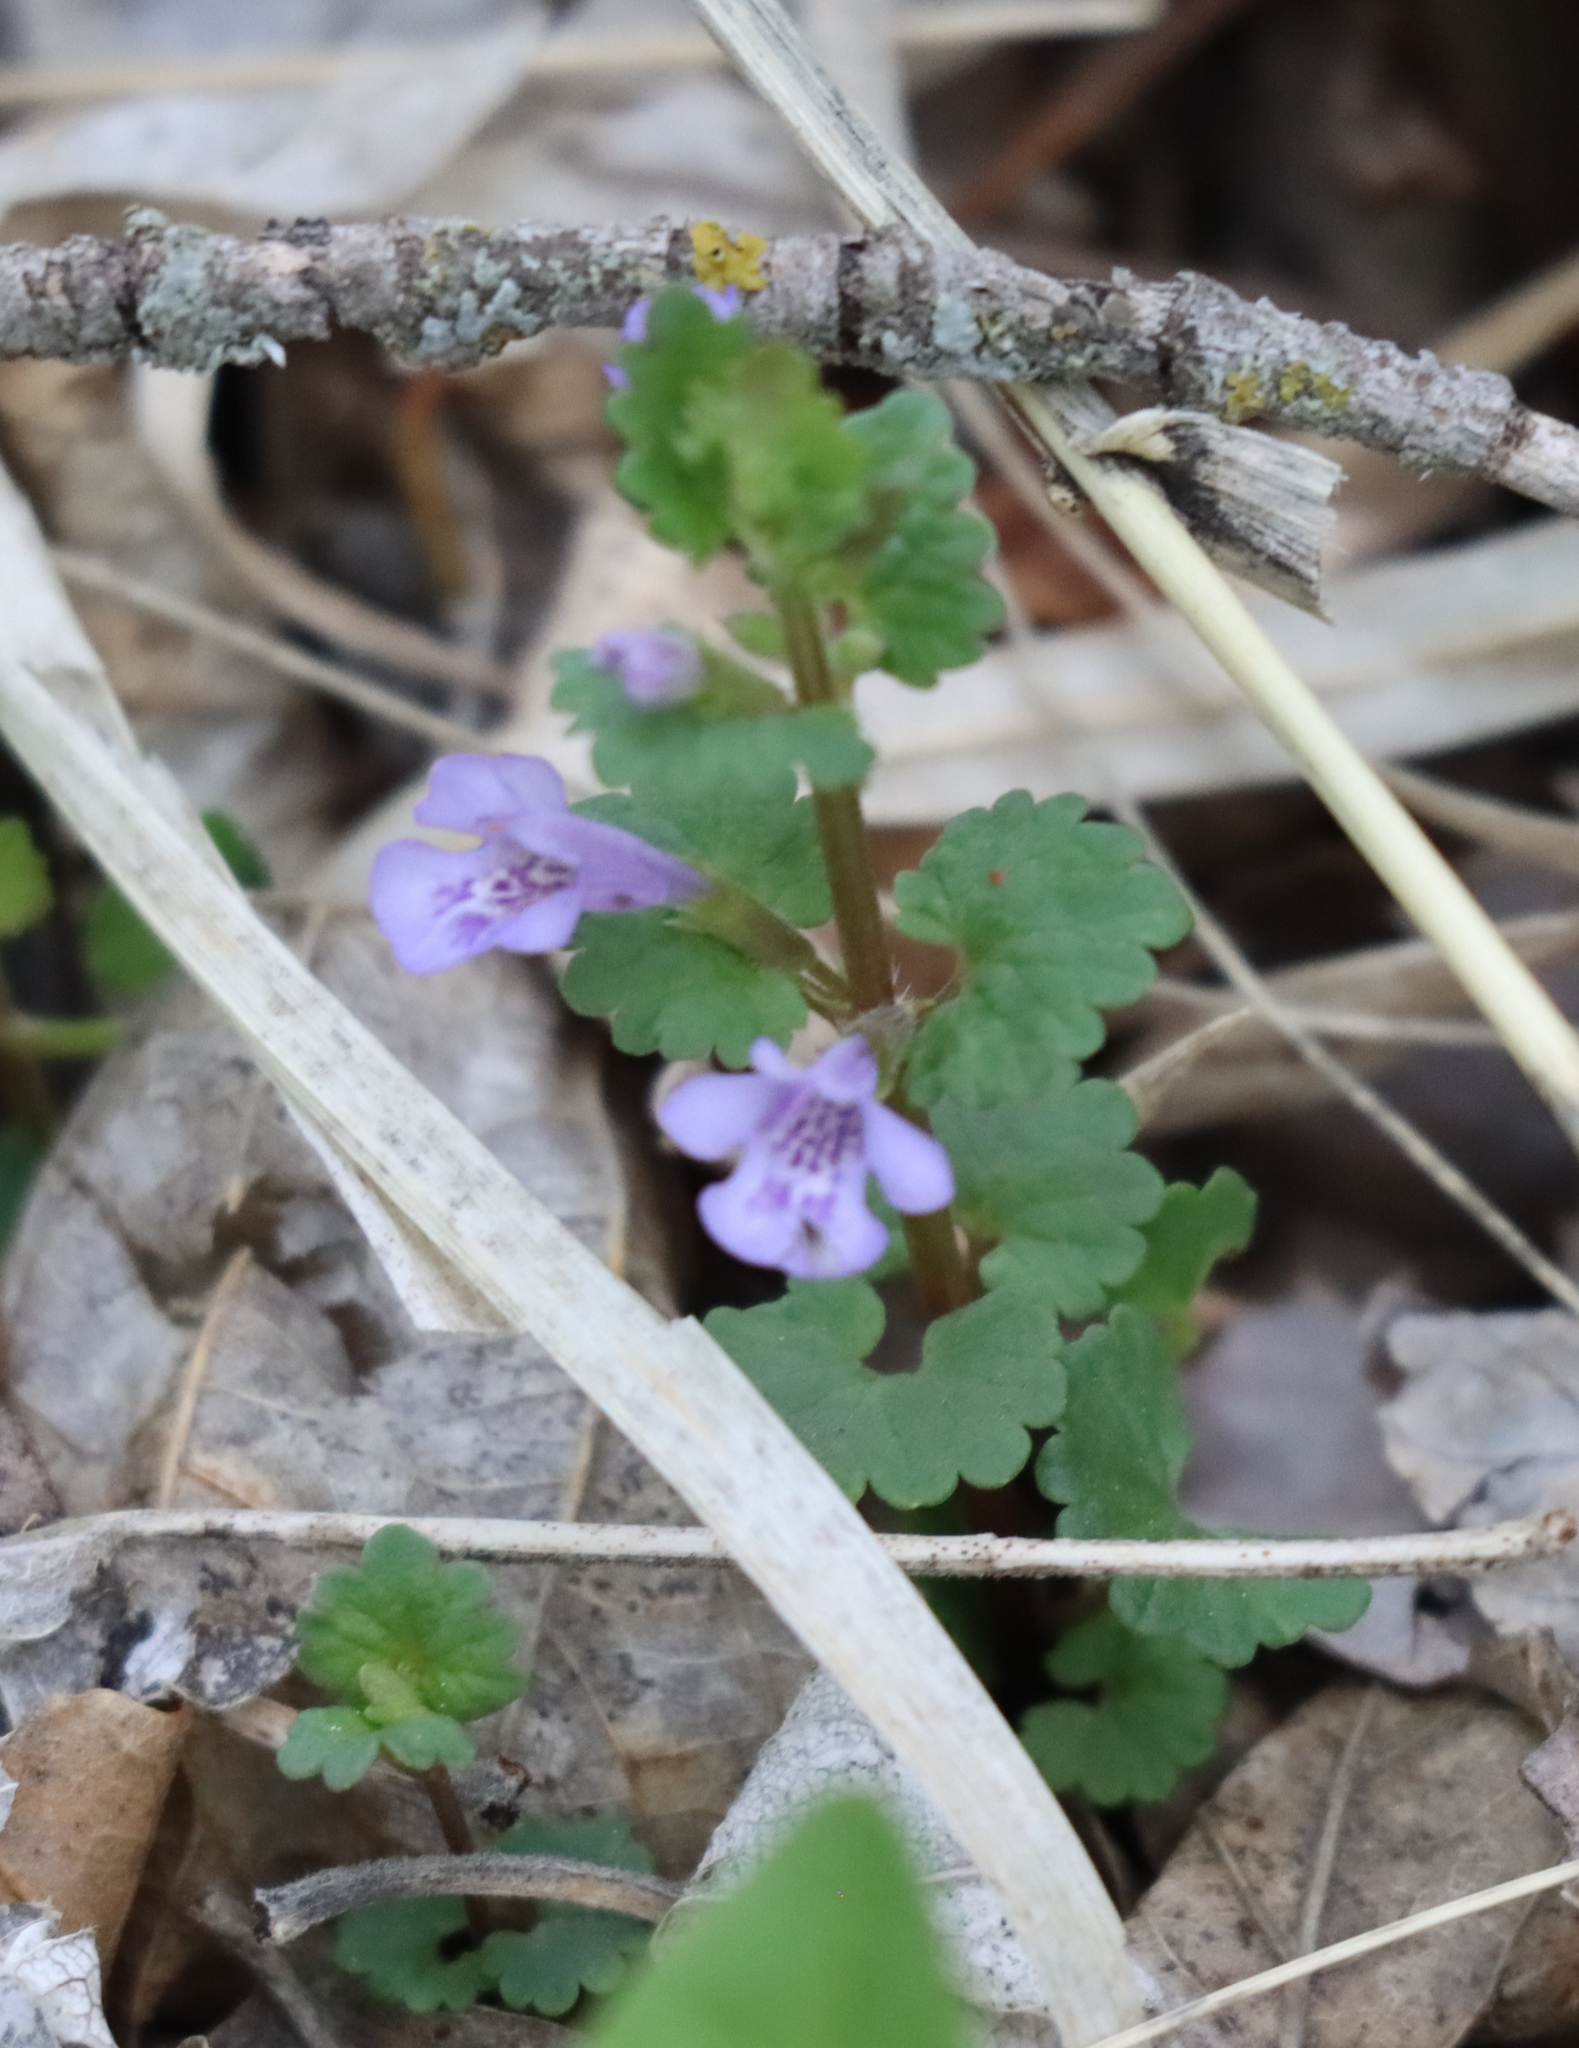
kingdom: Plantae
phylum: Tracheophyta
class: Magnoliopsida
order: Lamiales
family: Lamiaceae
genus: Glechoma
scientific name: Glechoma hederacea
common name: Ground ivy
